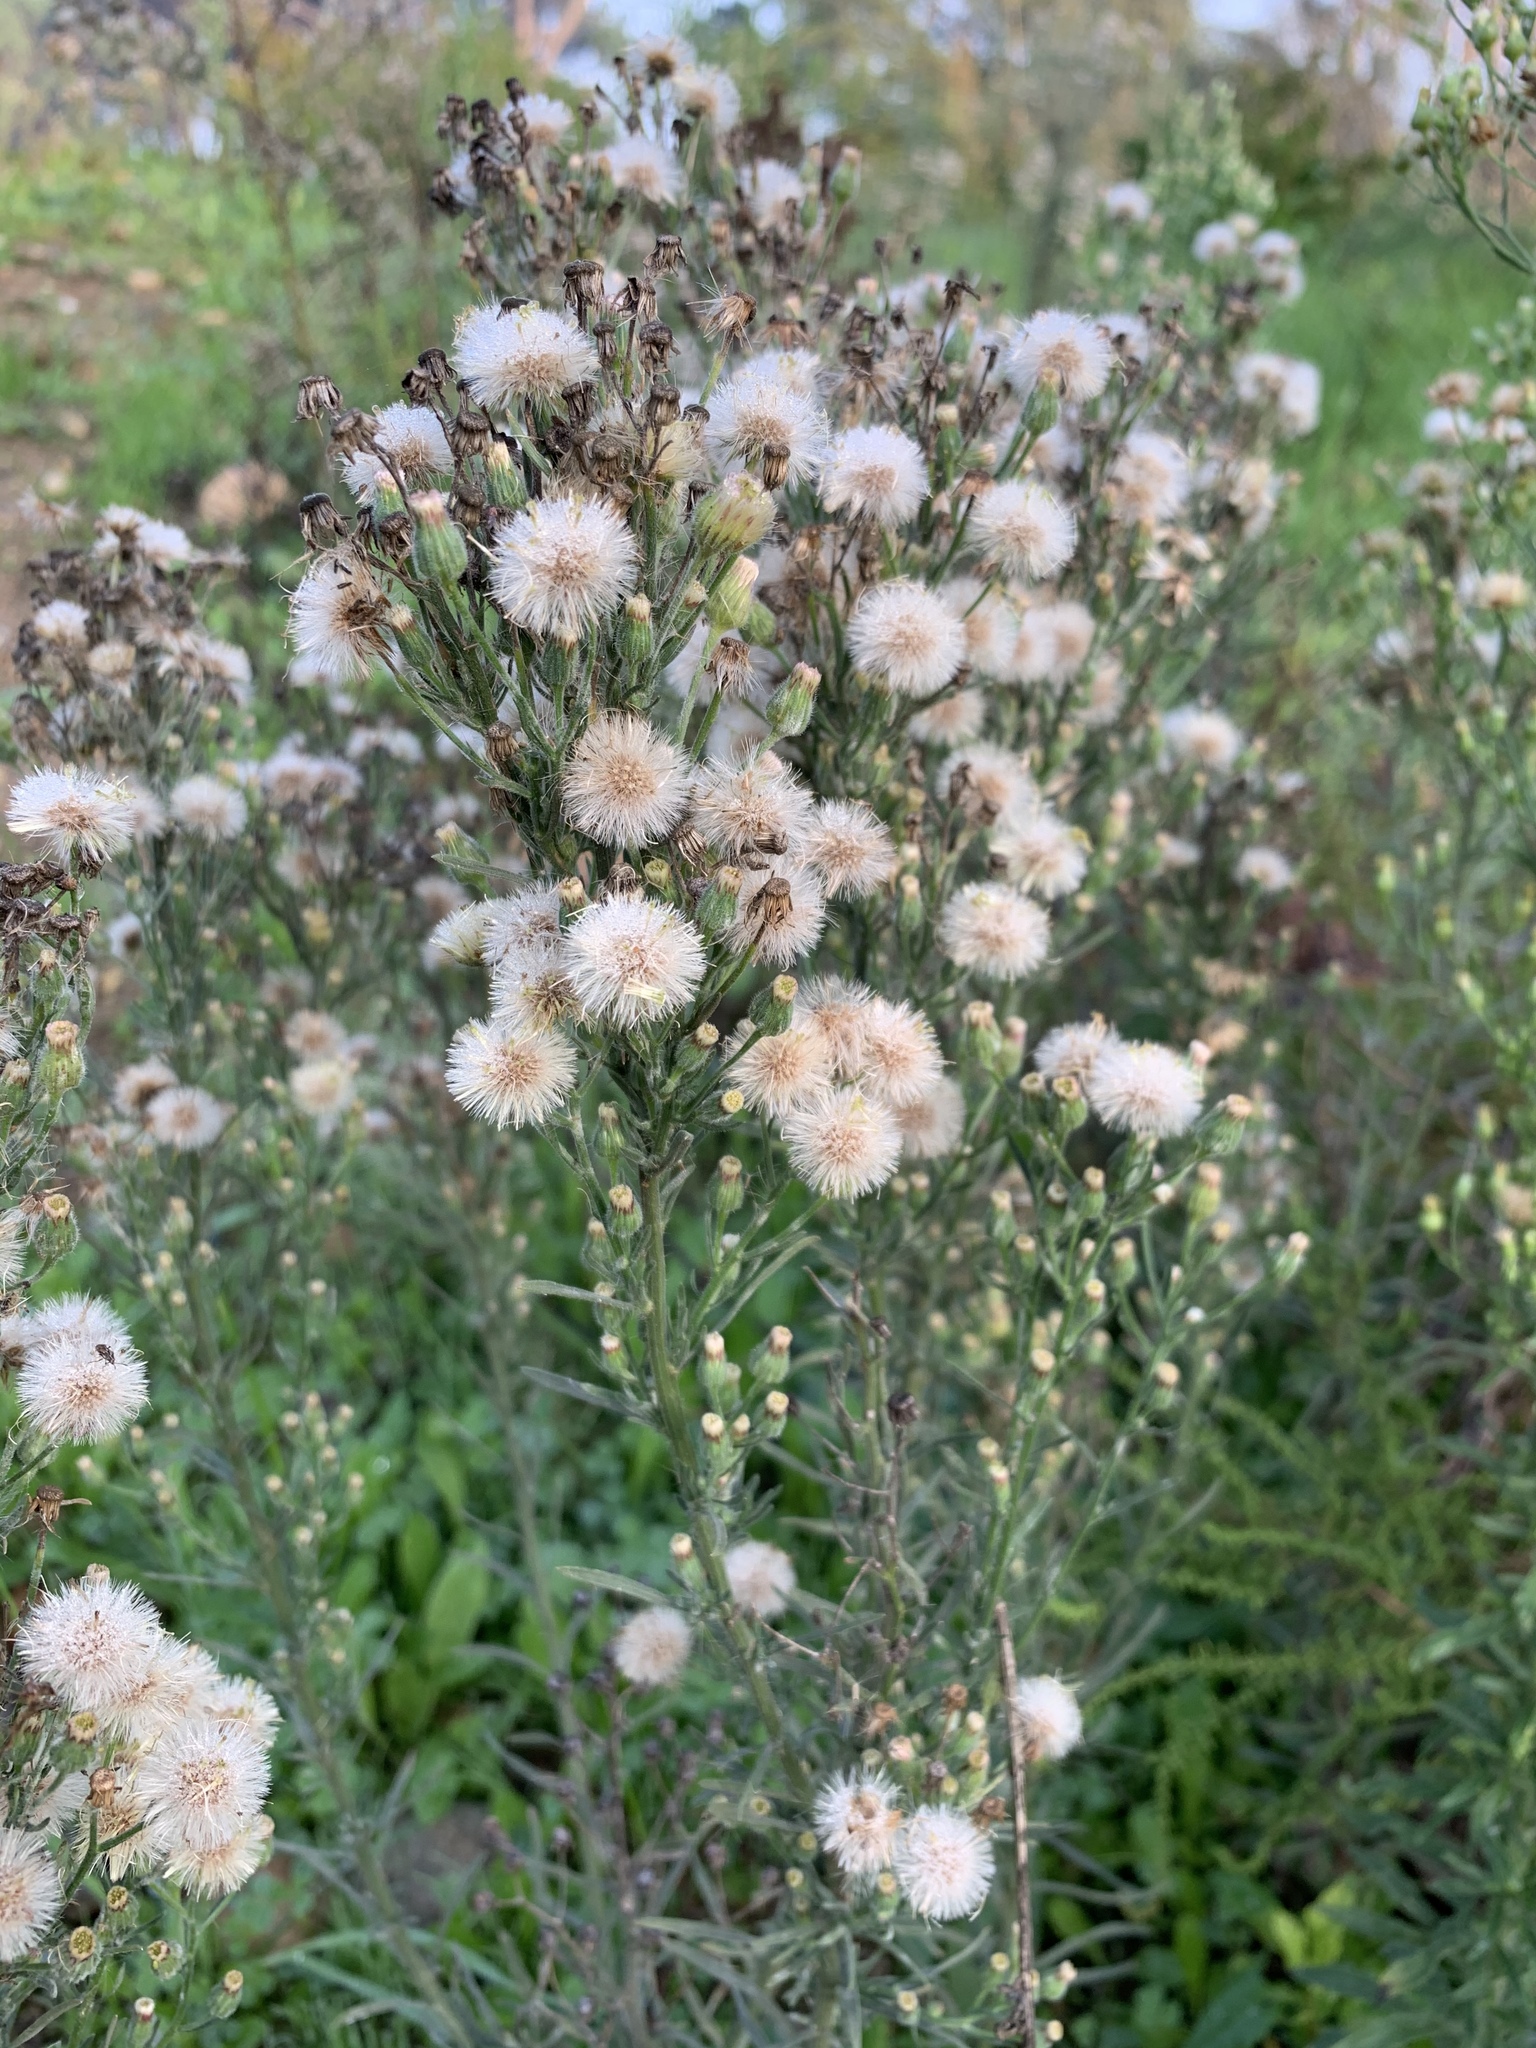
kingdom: Plantae
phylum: Tracheophyta
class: Magnoliopsida
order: Asterales
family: Asteraceae
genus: Erigeron
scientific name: Erigeron bonariensis
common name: Argentine fleabane
